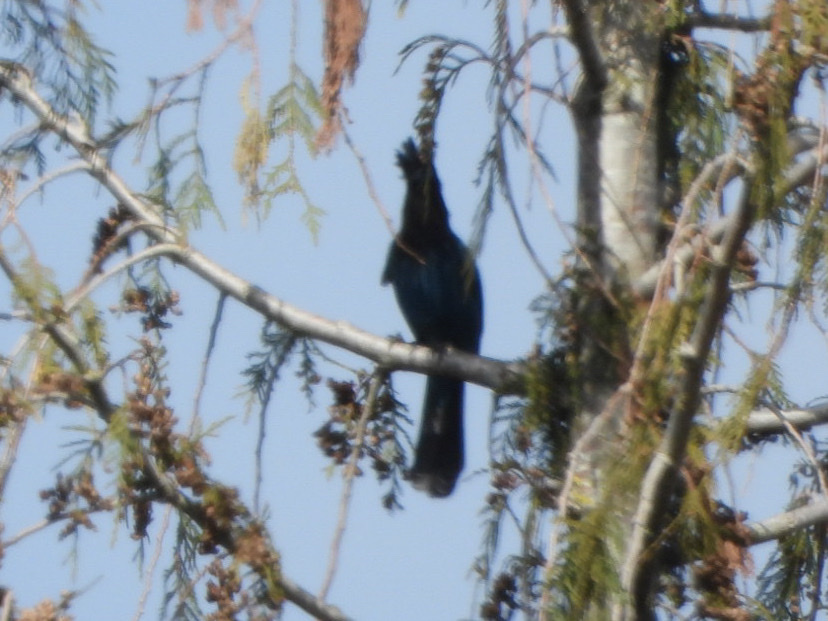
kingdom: Animalia
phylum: Chordata
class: Aves
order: Passeriformes
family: Corvidae
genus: Cyanocitta
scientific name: Cyanocitta stelleri
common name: Steller's jay
